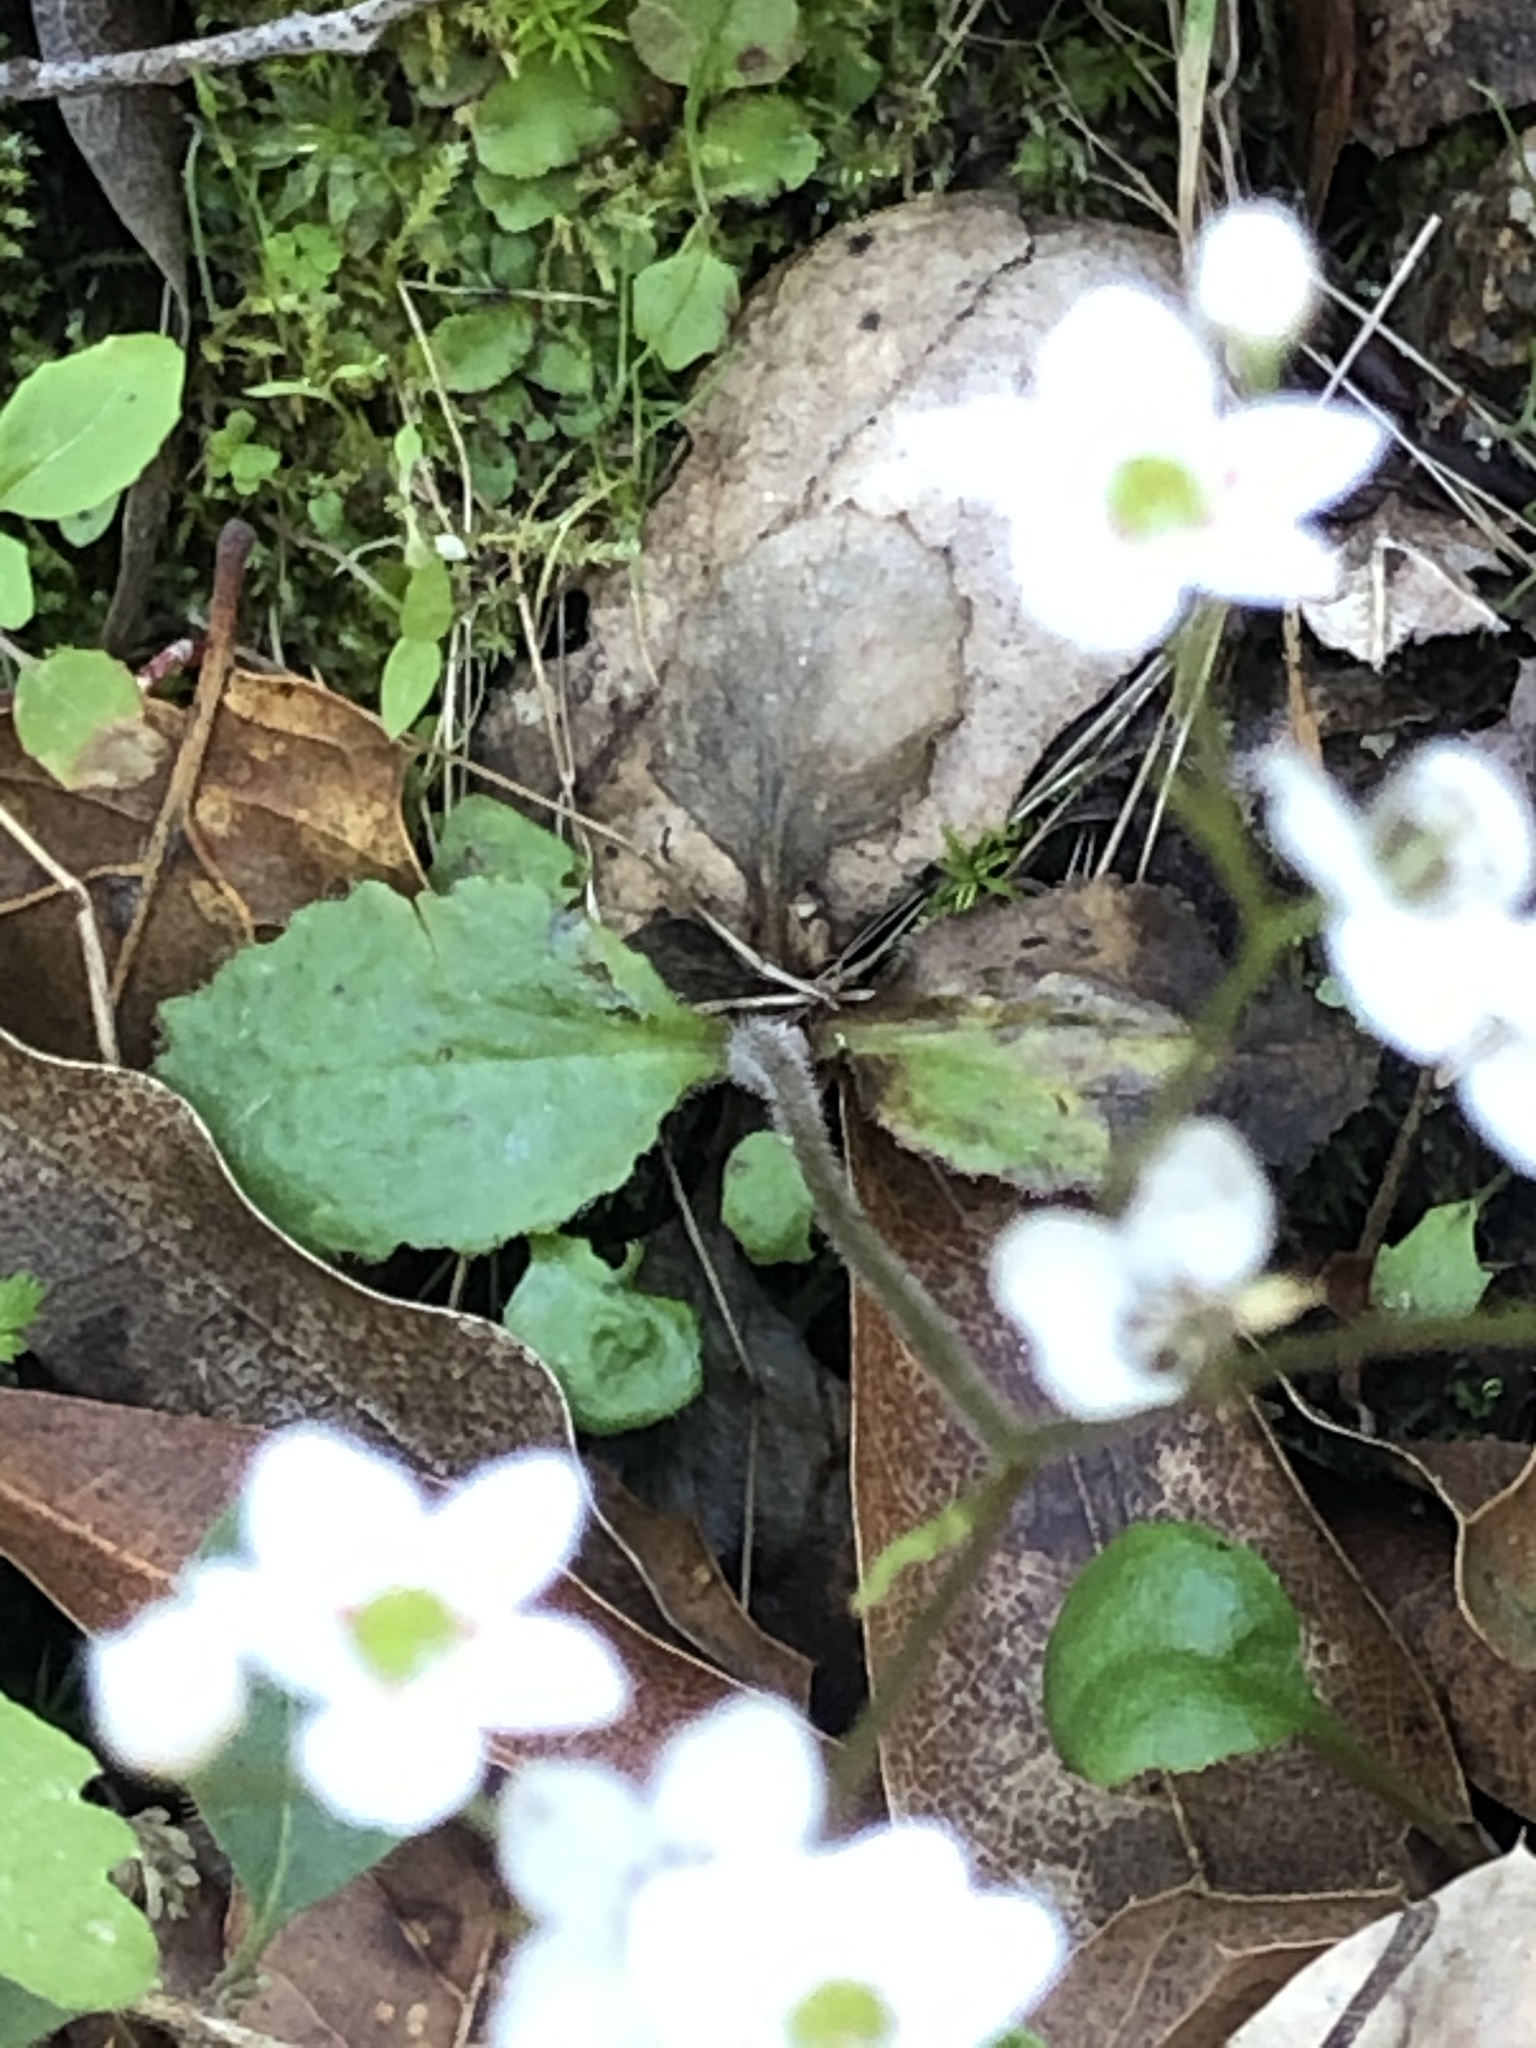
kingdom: Plantae
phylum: Tracheophyta
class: Magnoliopsida
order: Saxifragales
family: Saxifragaceae
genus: Micranthes
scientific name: Micranthes californica
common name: California saxifrage
